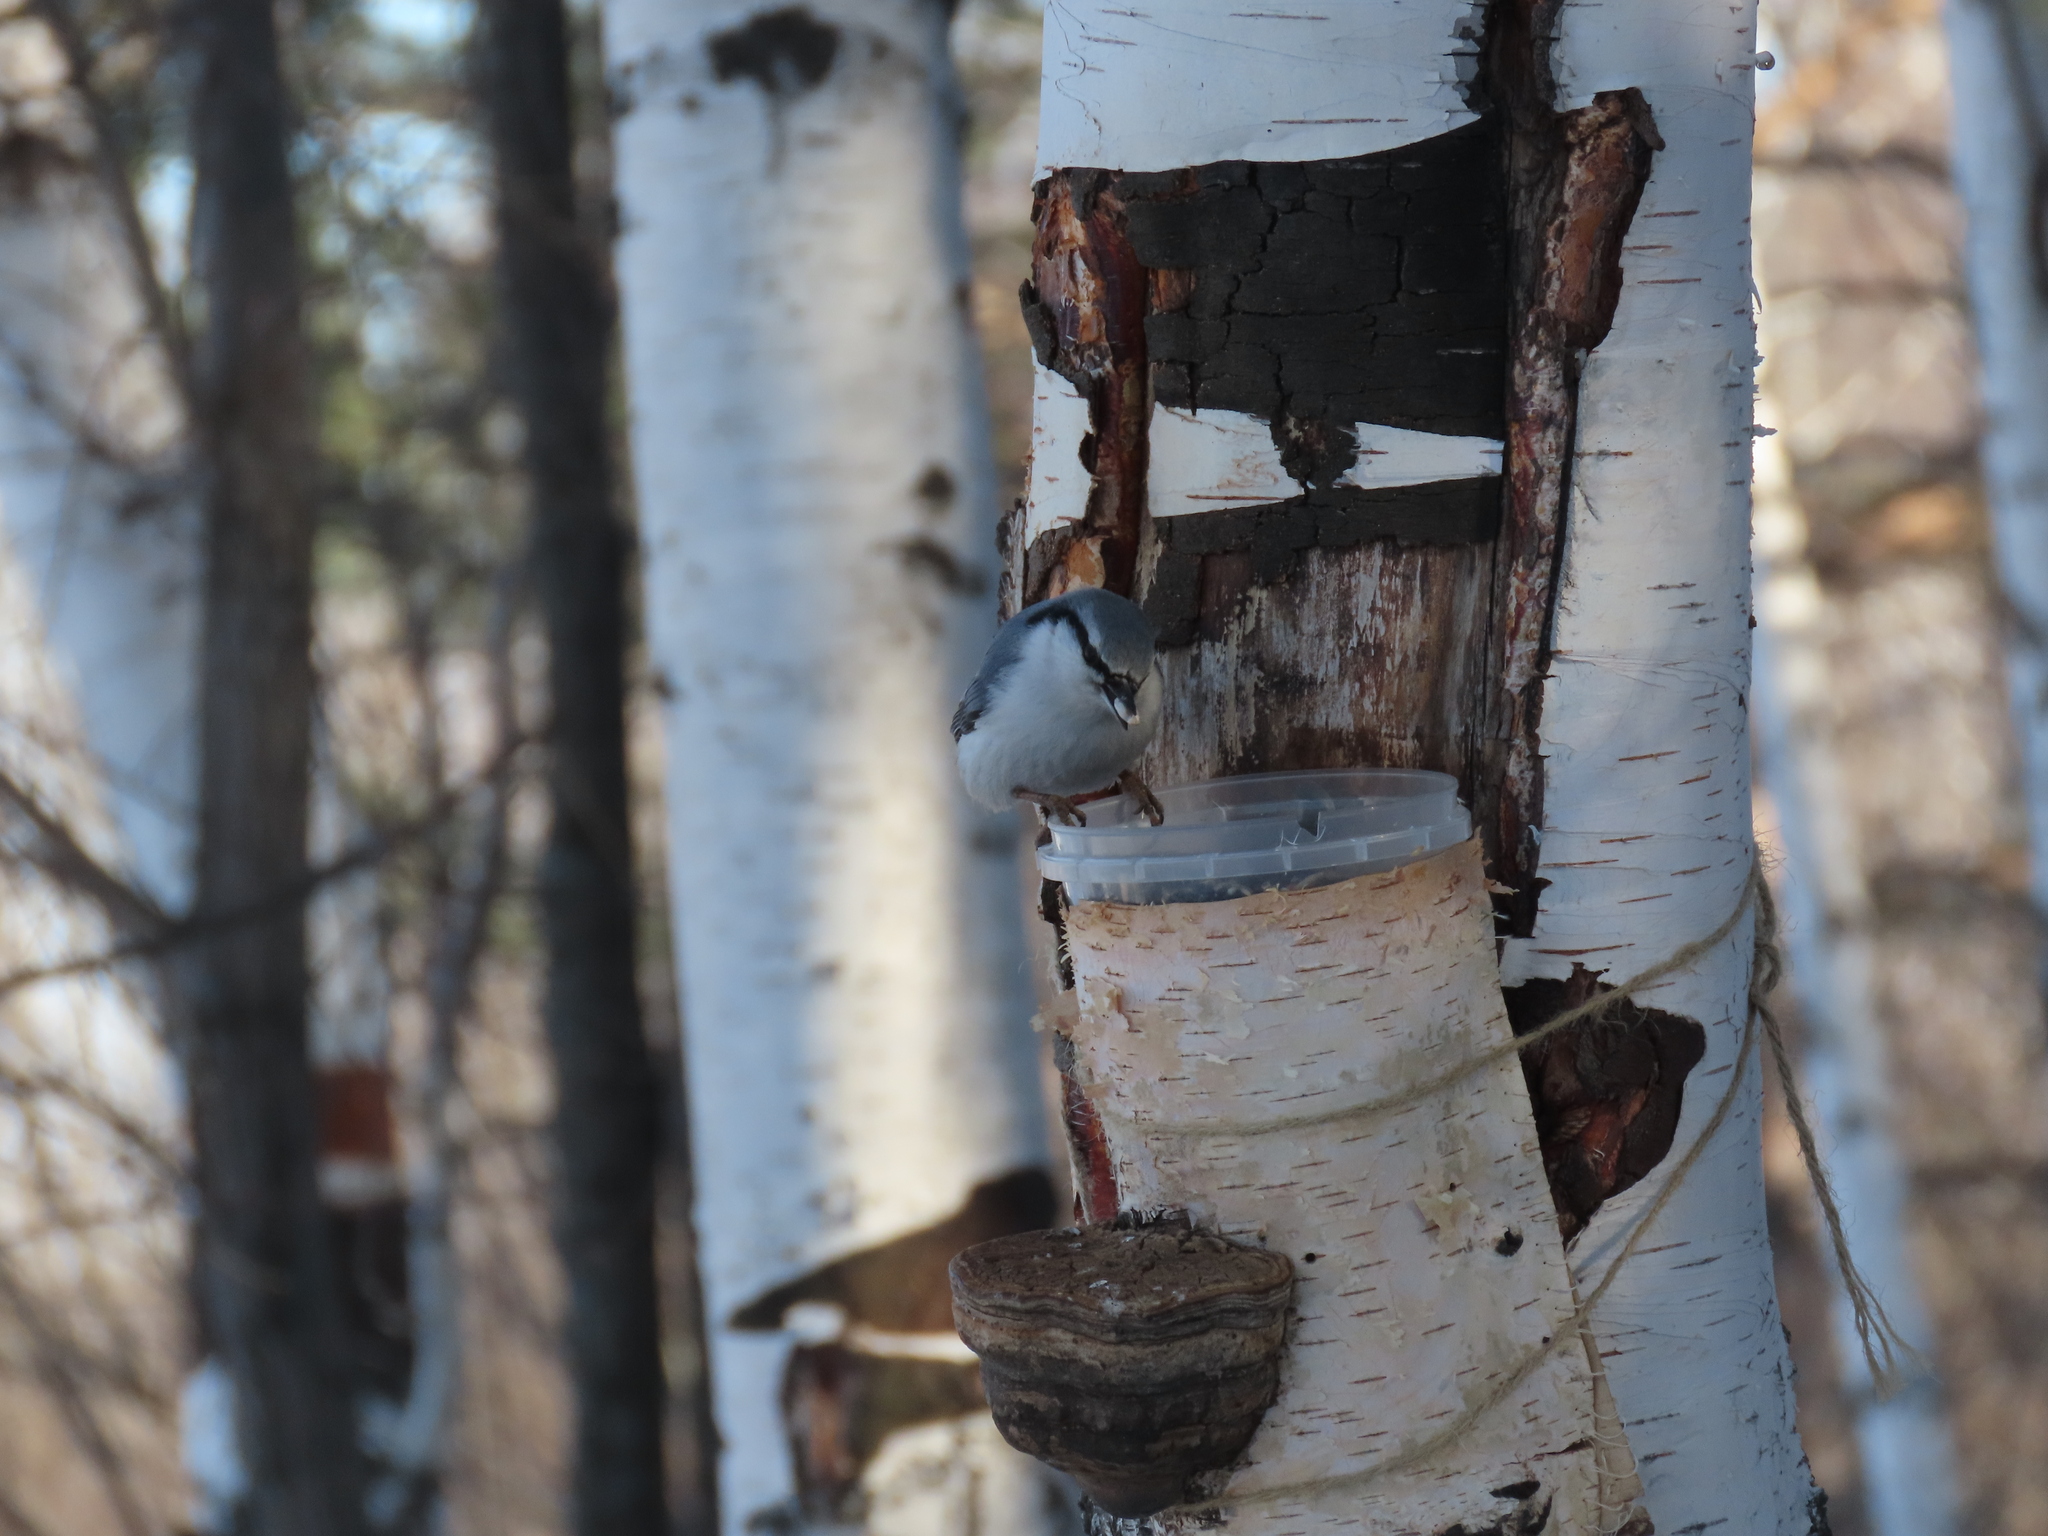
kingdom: Animalia
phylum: Chordata
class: Aves
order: Passeriformes
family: Sittidae
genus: Sitta
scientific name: Sitta europaea
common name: Eurasian nuthatch
